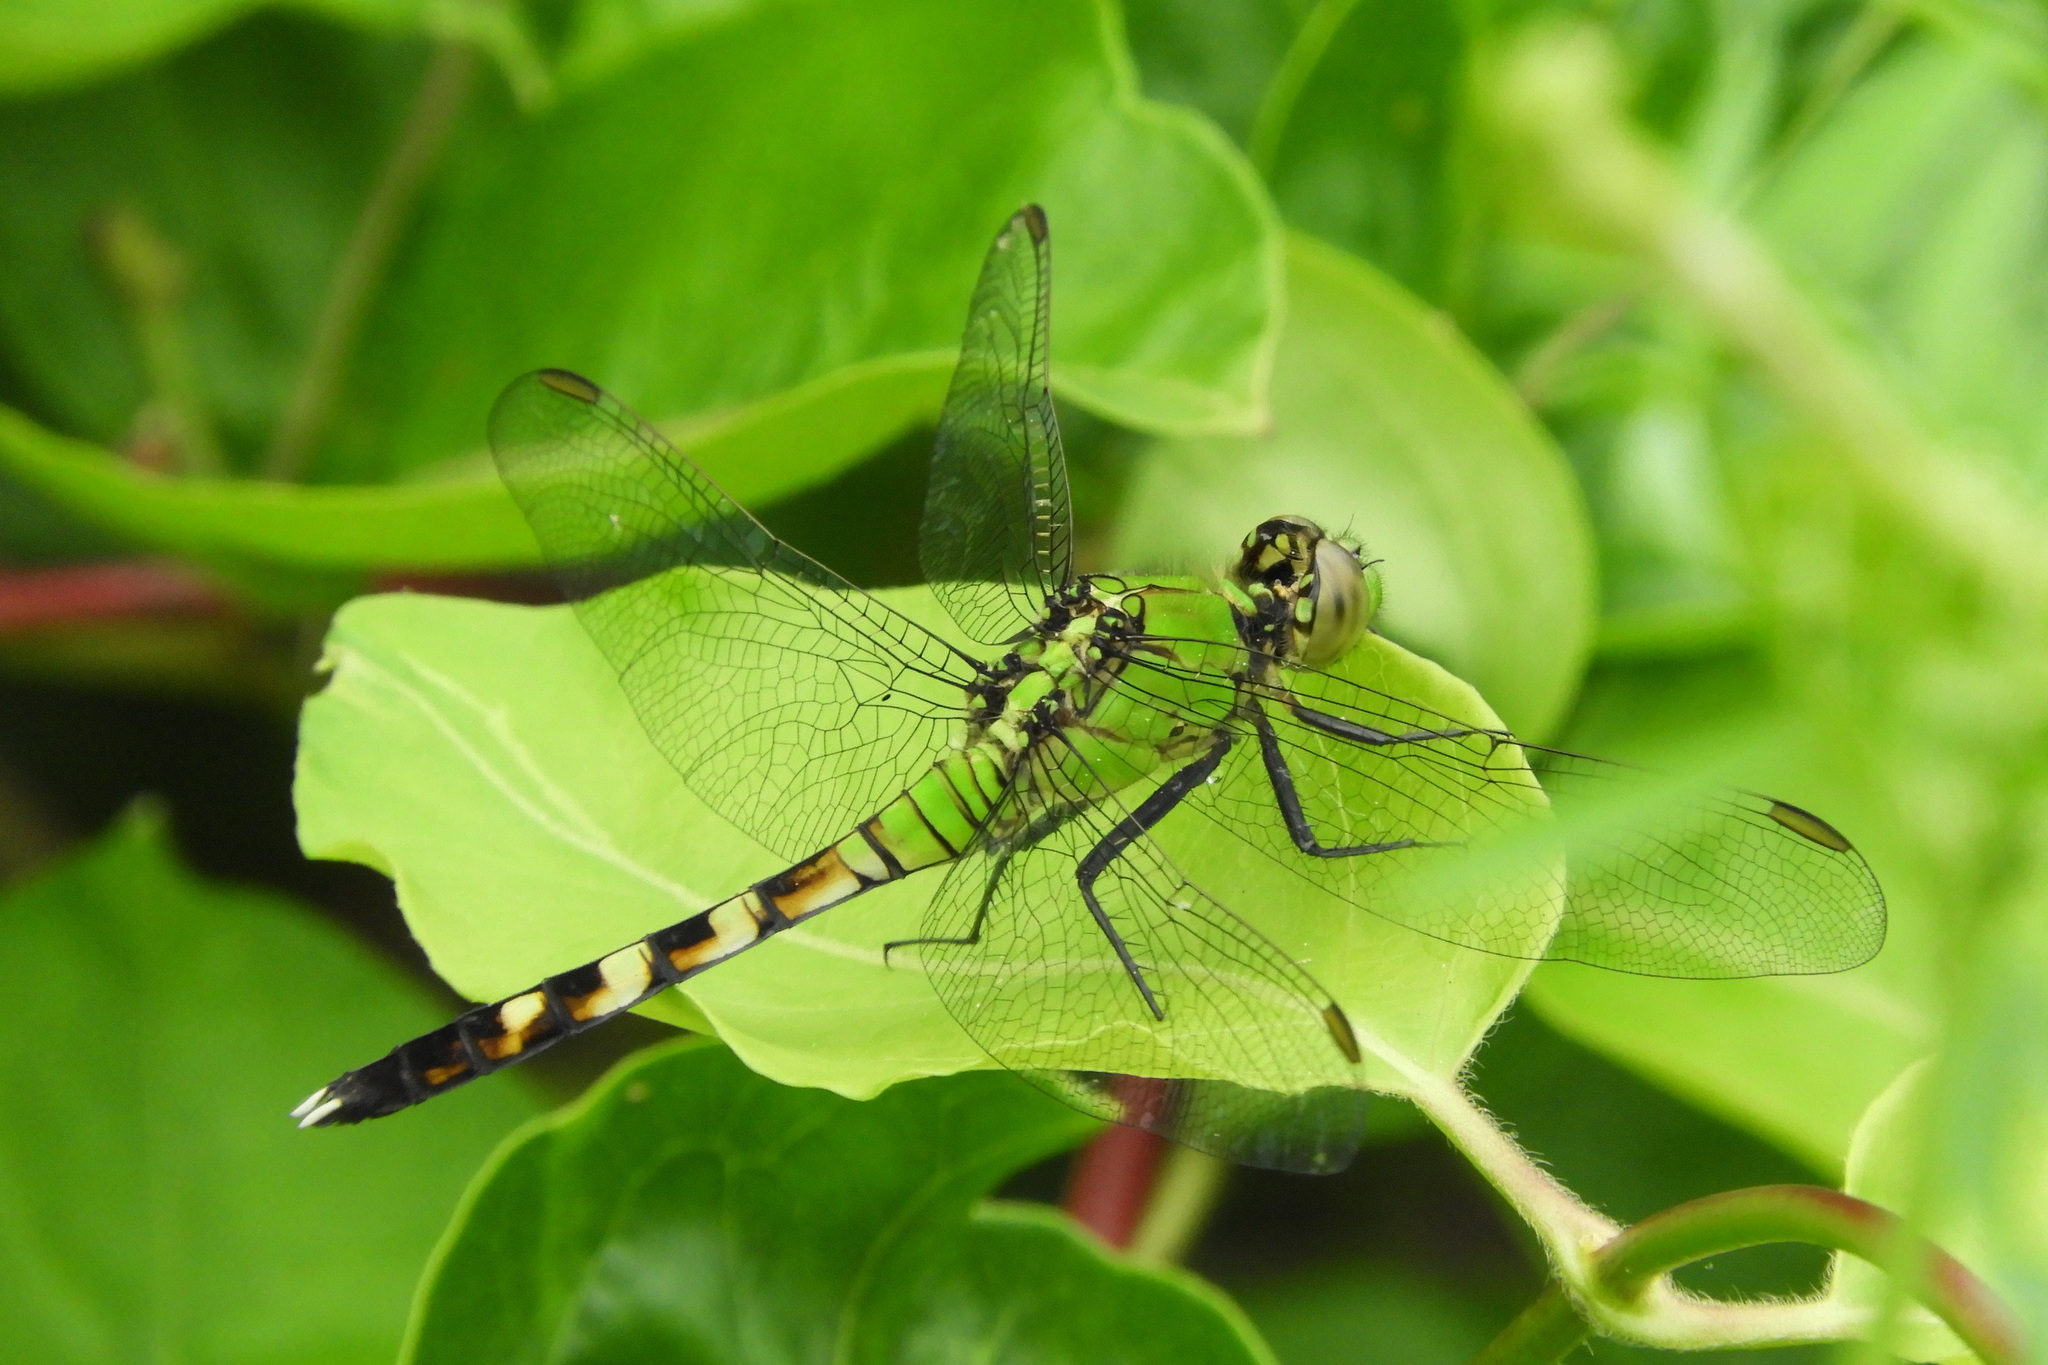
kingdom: Animalia
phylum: Arthropoda
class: Insecta
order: Odonata
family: Libellulidae
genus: Erythemis
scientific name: Erythemis simplicicollis
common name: Eastern pondhawk
